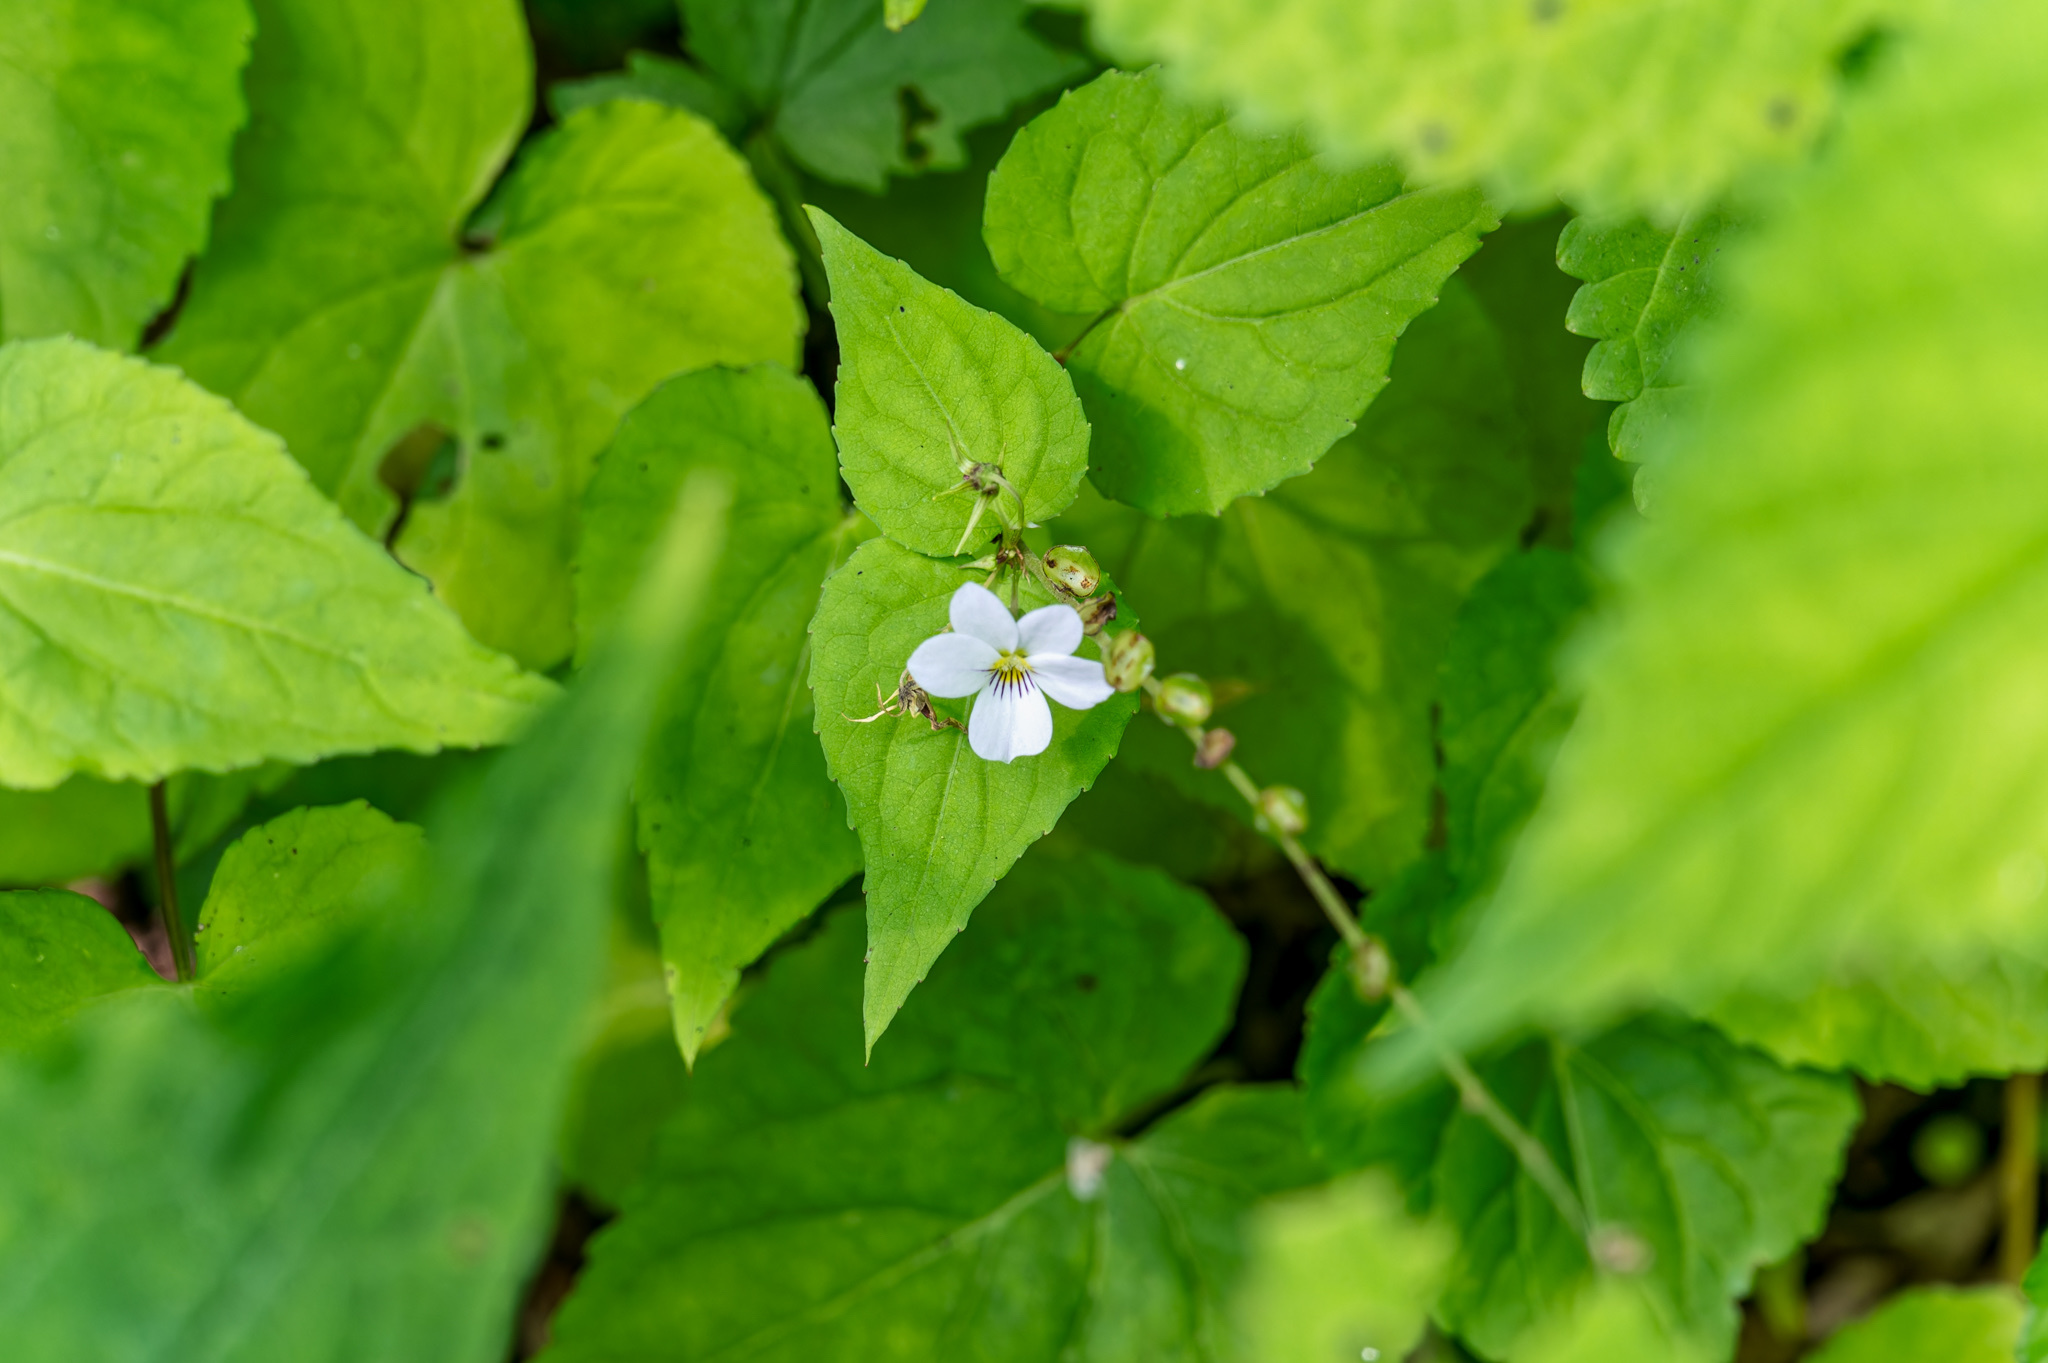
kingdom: Plantae
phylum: Tracheophyta
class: Magnoliopsida
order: Malpighiales
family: Violaceae
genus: Viola
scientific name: Viola canadensis
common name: Canada violet
